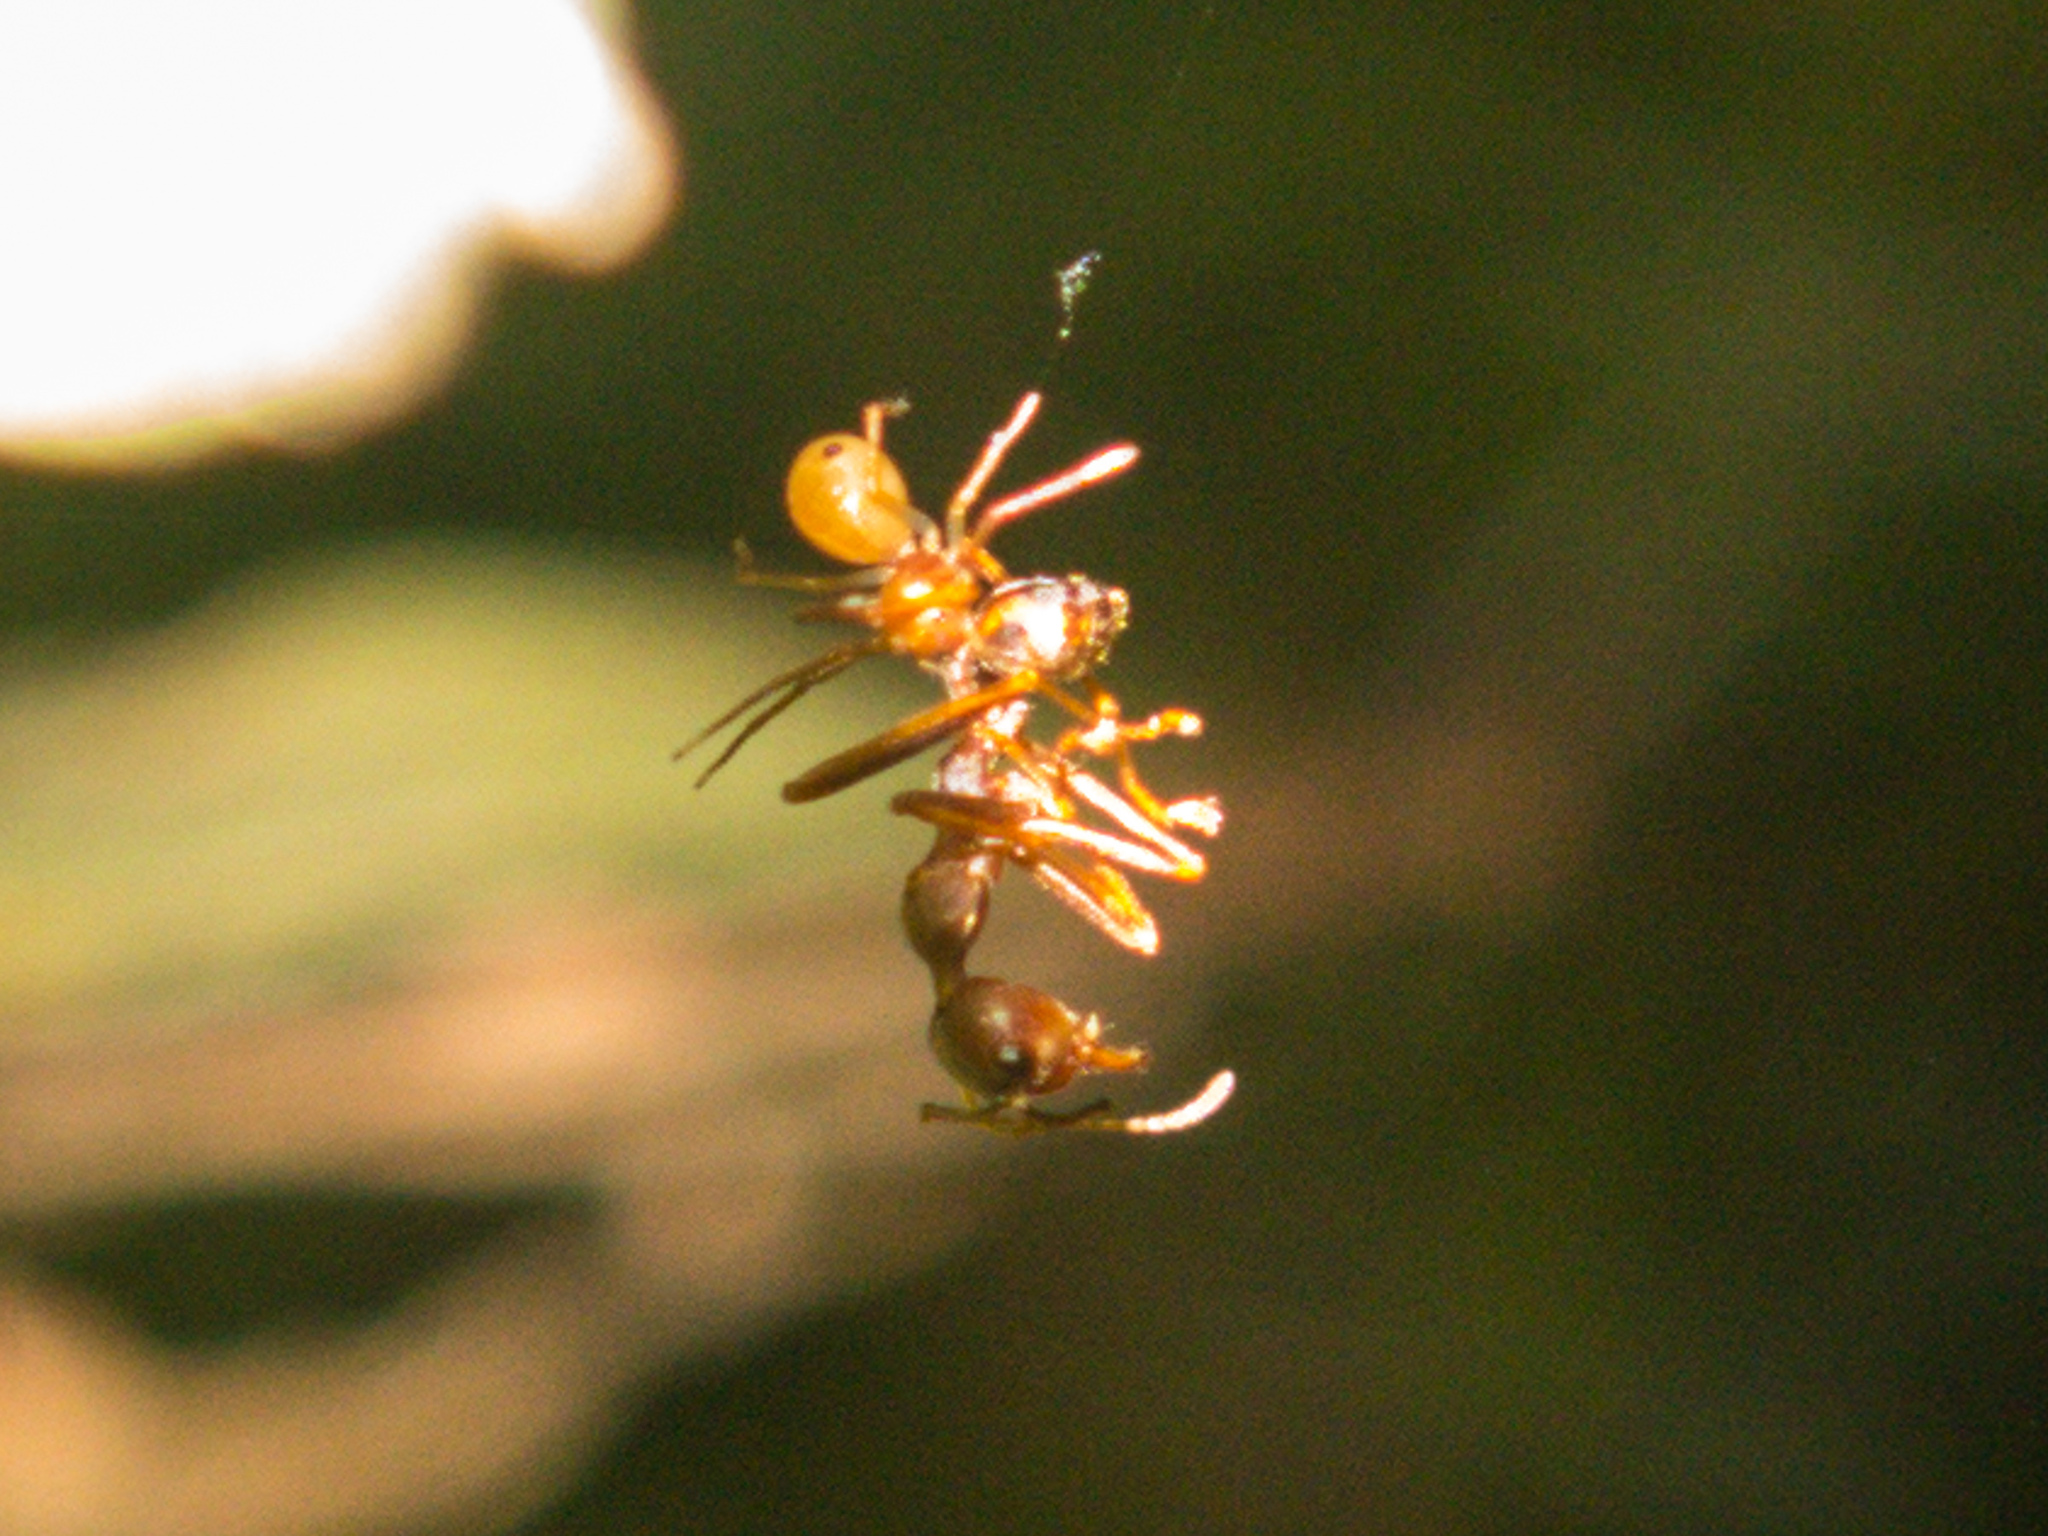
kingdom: Animalia
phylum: Arthropoda
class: Insecta
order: Hymenoptera
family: Formicidae
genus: Oecophylla
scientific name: Oecophylla smaragdina
